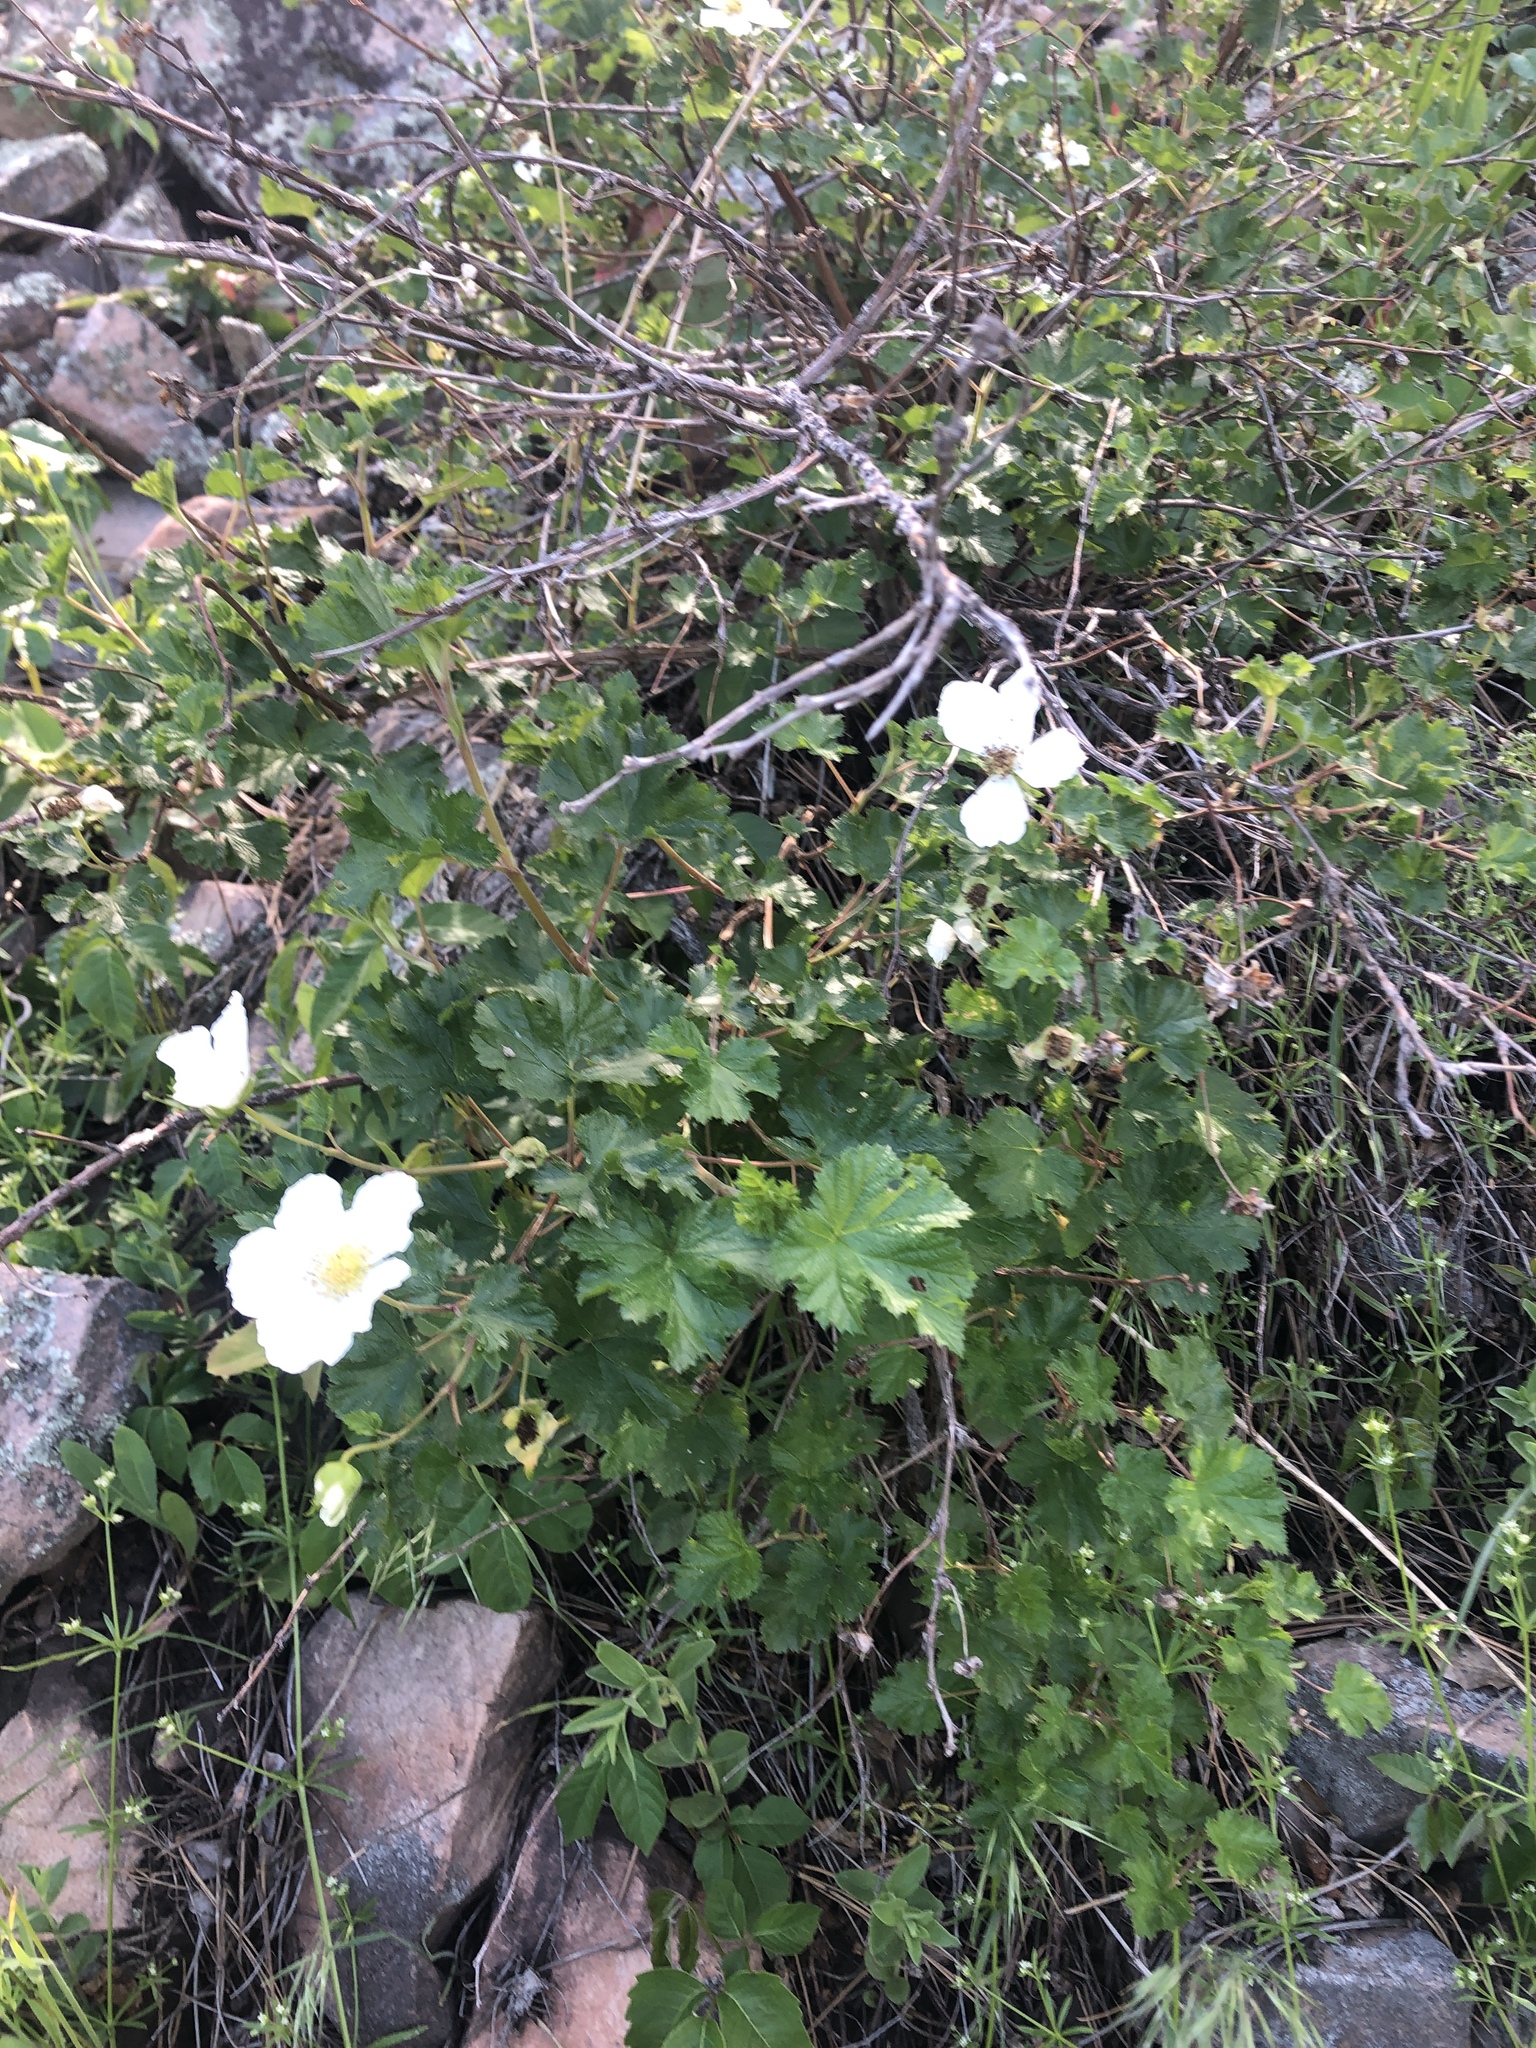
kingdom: Plantae
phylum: Tracheophyta
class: Magnoliopsida
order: Rosales
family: Rosaceae
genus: Rubus
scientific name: Rubus deliciosus
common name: Rocky mountain raspberry
